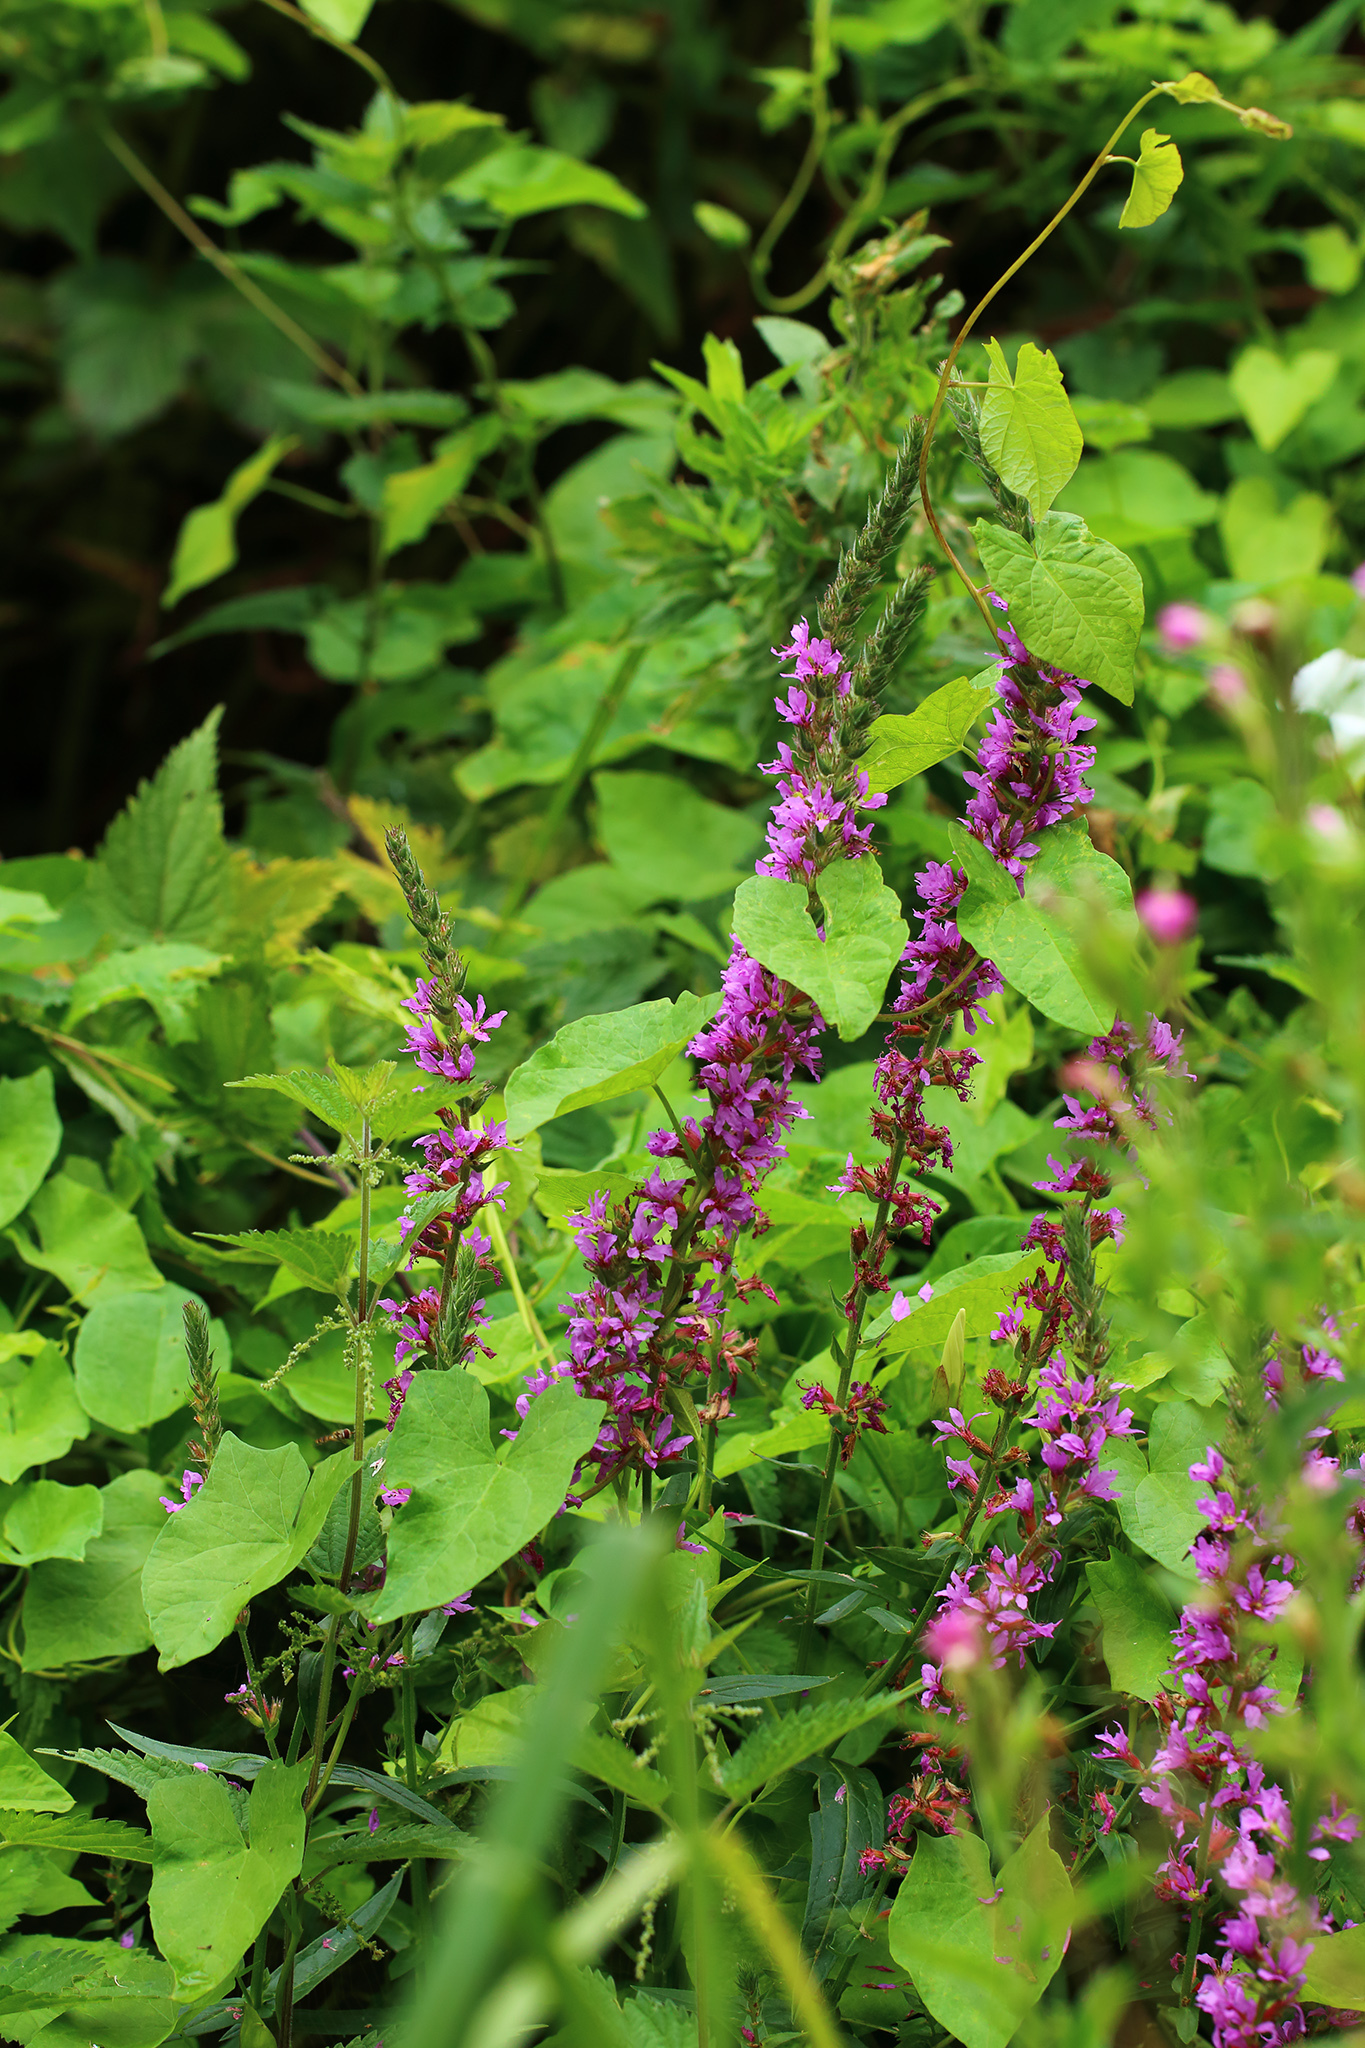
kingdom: Plantae
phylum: Tracheophyta
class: Magnoliopsida
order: Myrtales
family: Lythraceae
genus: Lythrum
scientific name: Lythrum salicaria
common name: Purple loosestrife
